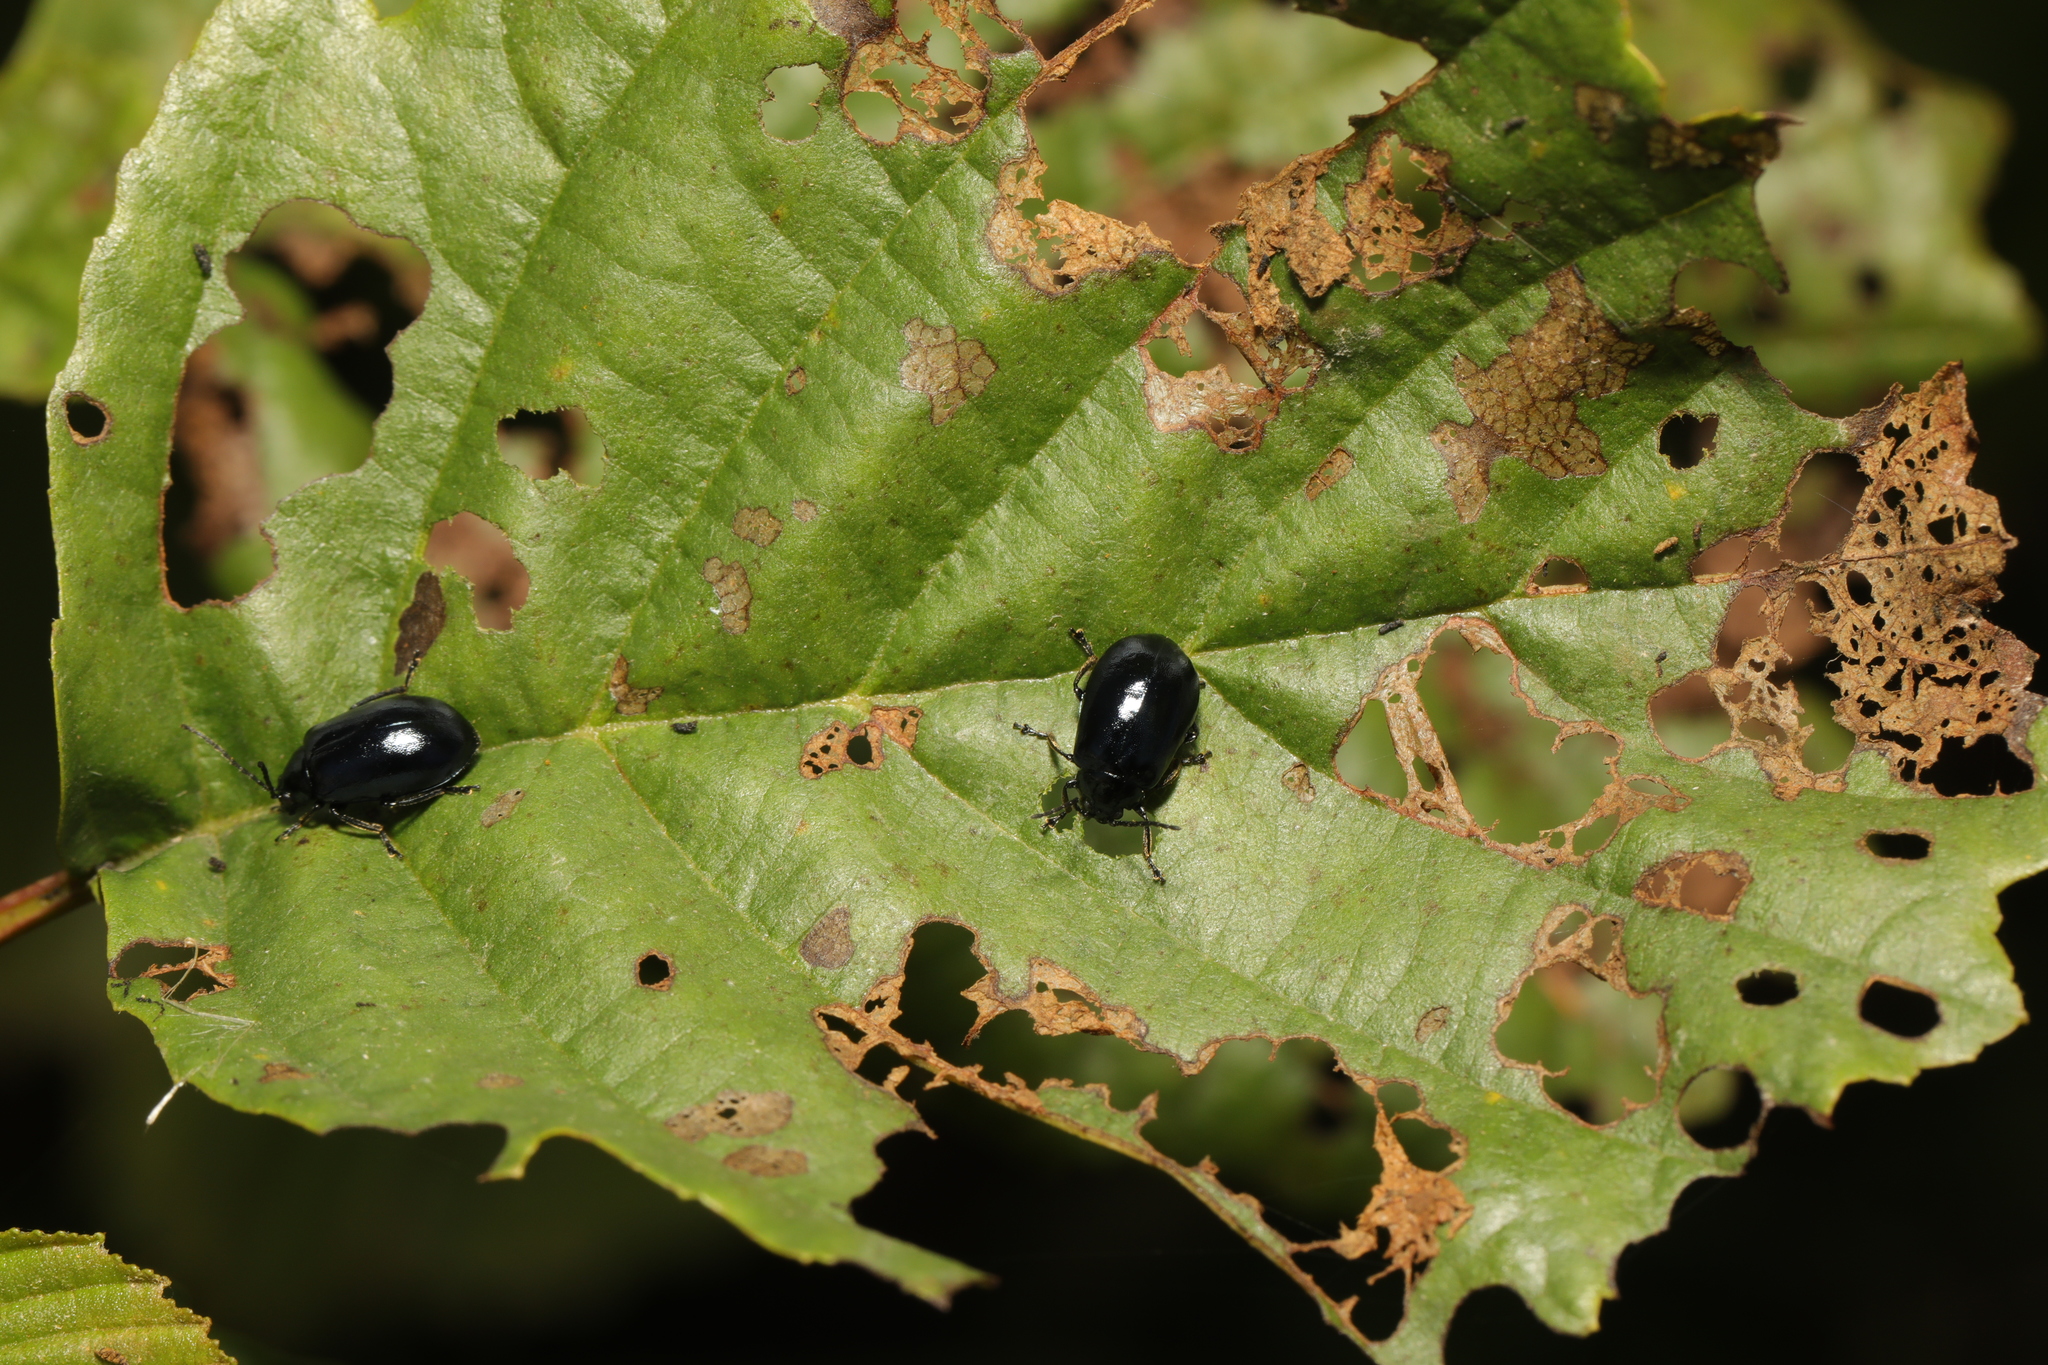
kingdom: Animalia
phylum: Arthropoda
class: Insecta
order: Coleoptera
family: Chrysomelidae
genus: Agelastica
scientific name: Agelastica alni
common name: Alder leaf beetle
